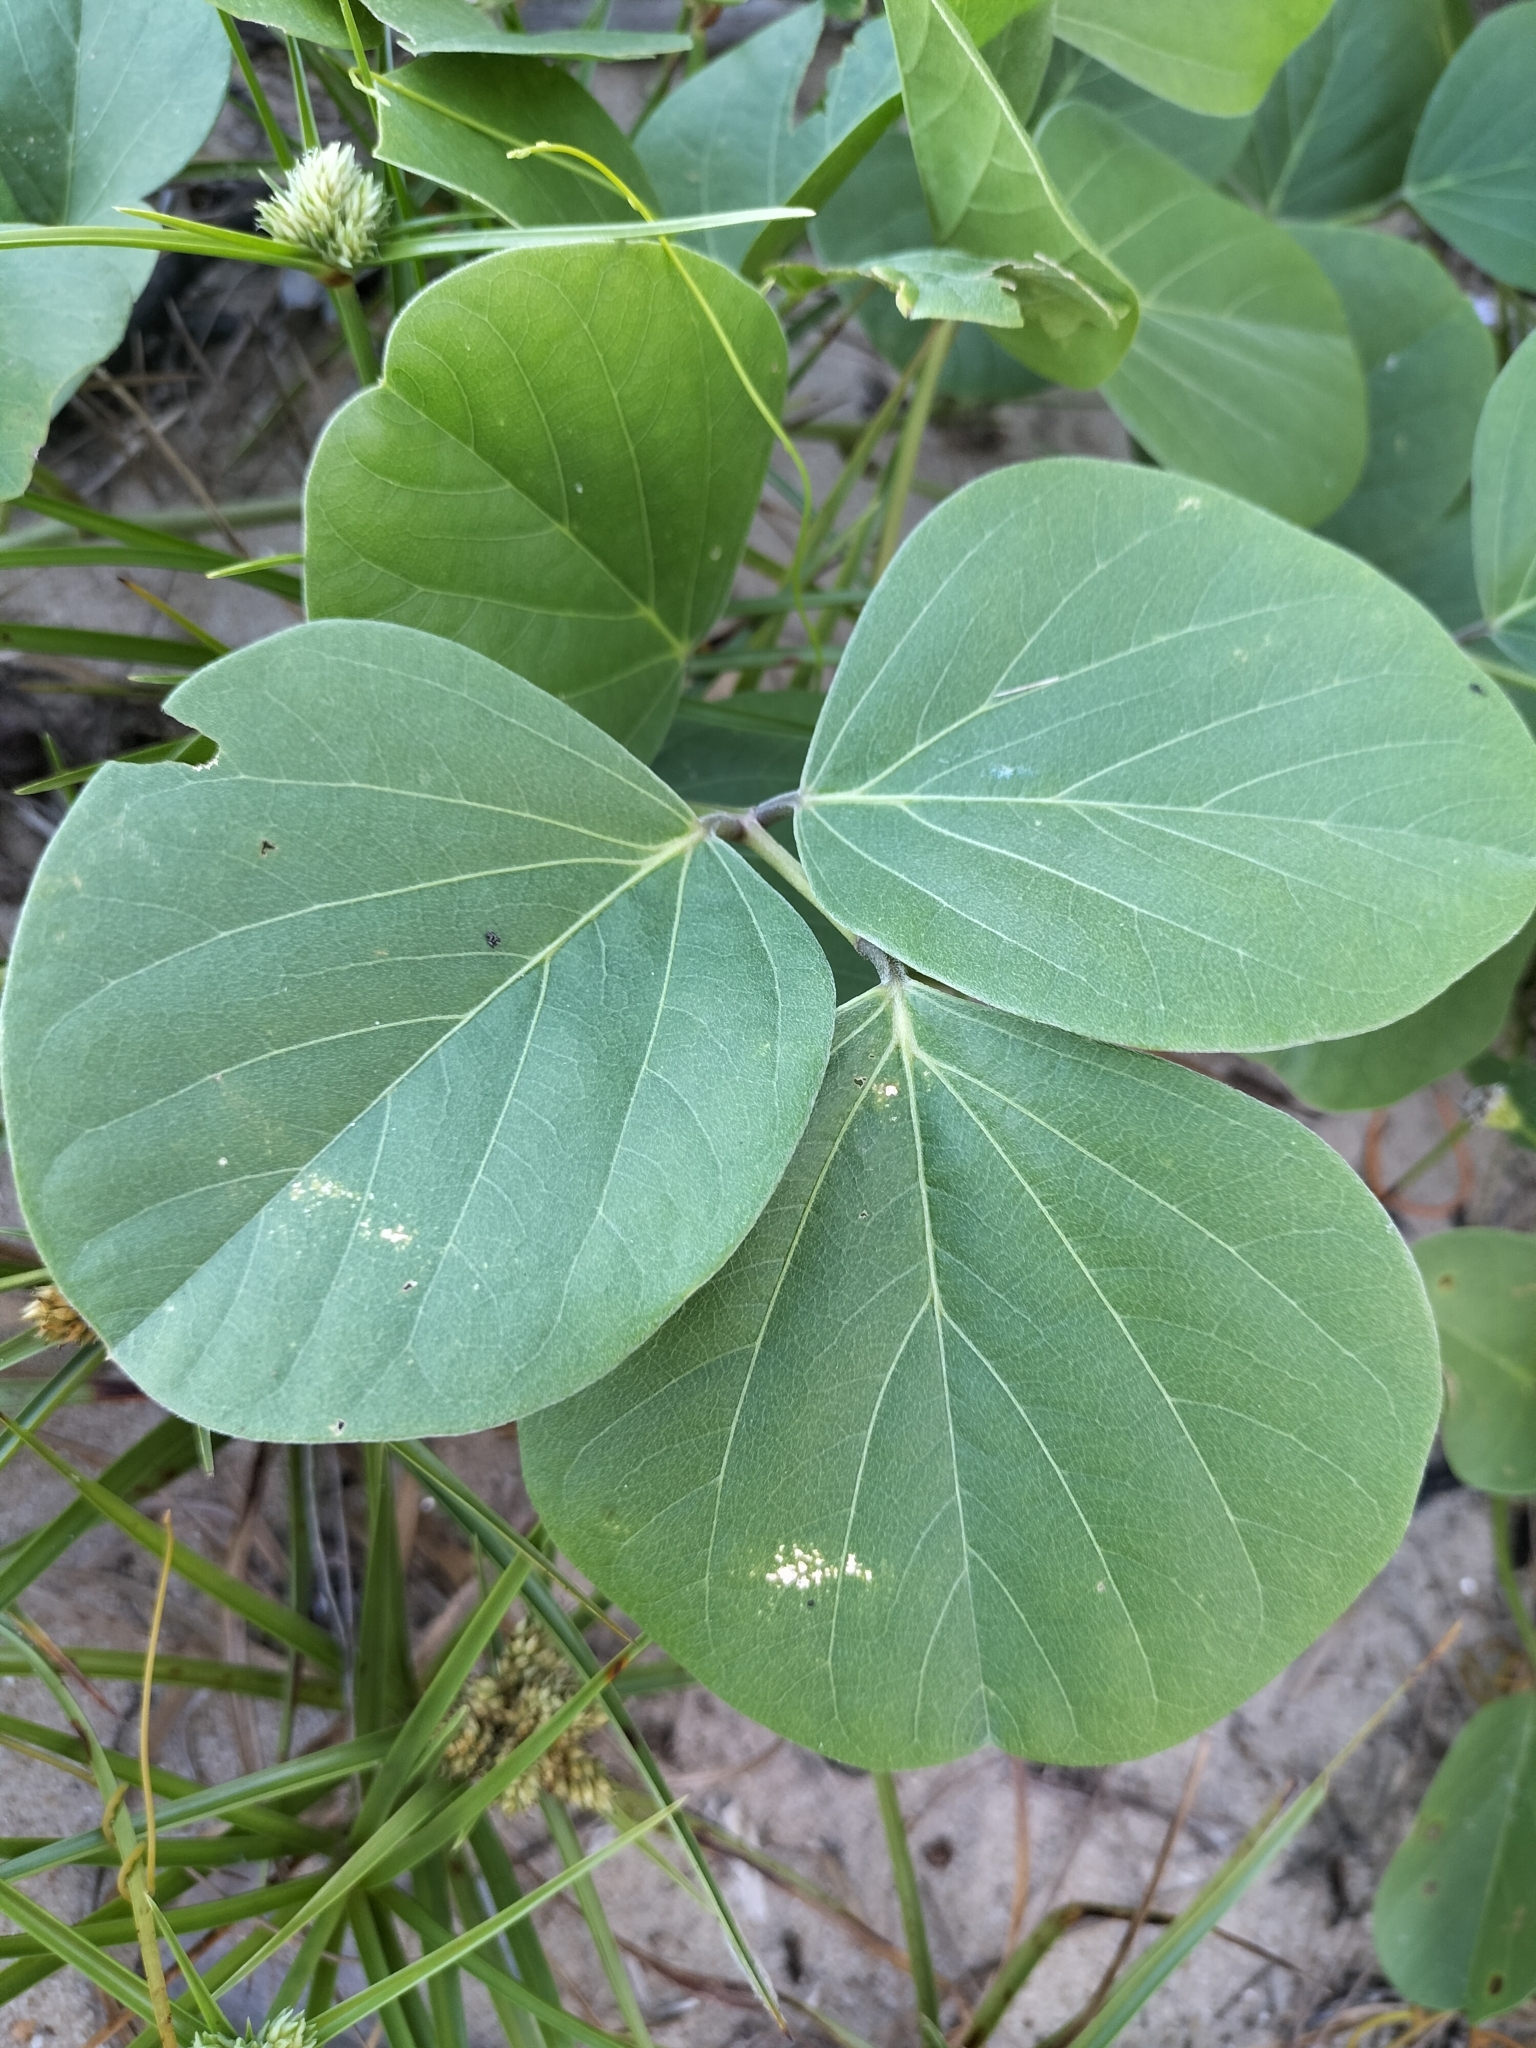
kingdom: Plantae
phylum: Tracheophyta
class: Magnoliopsida
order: Fabales
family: Fabaceae
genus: Canavalia
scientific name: Canavalia rosea
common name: Beach-bean
